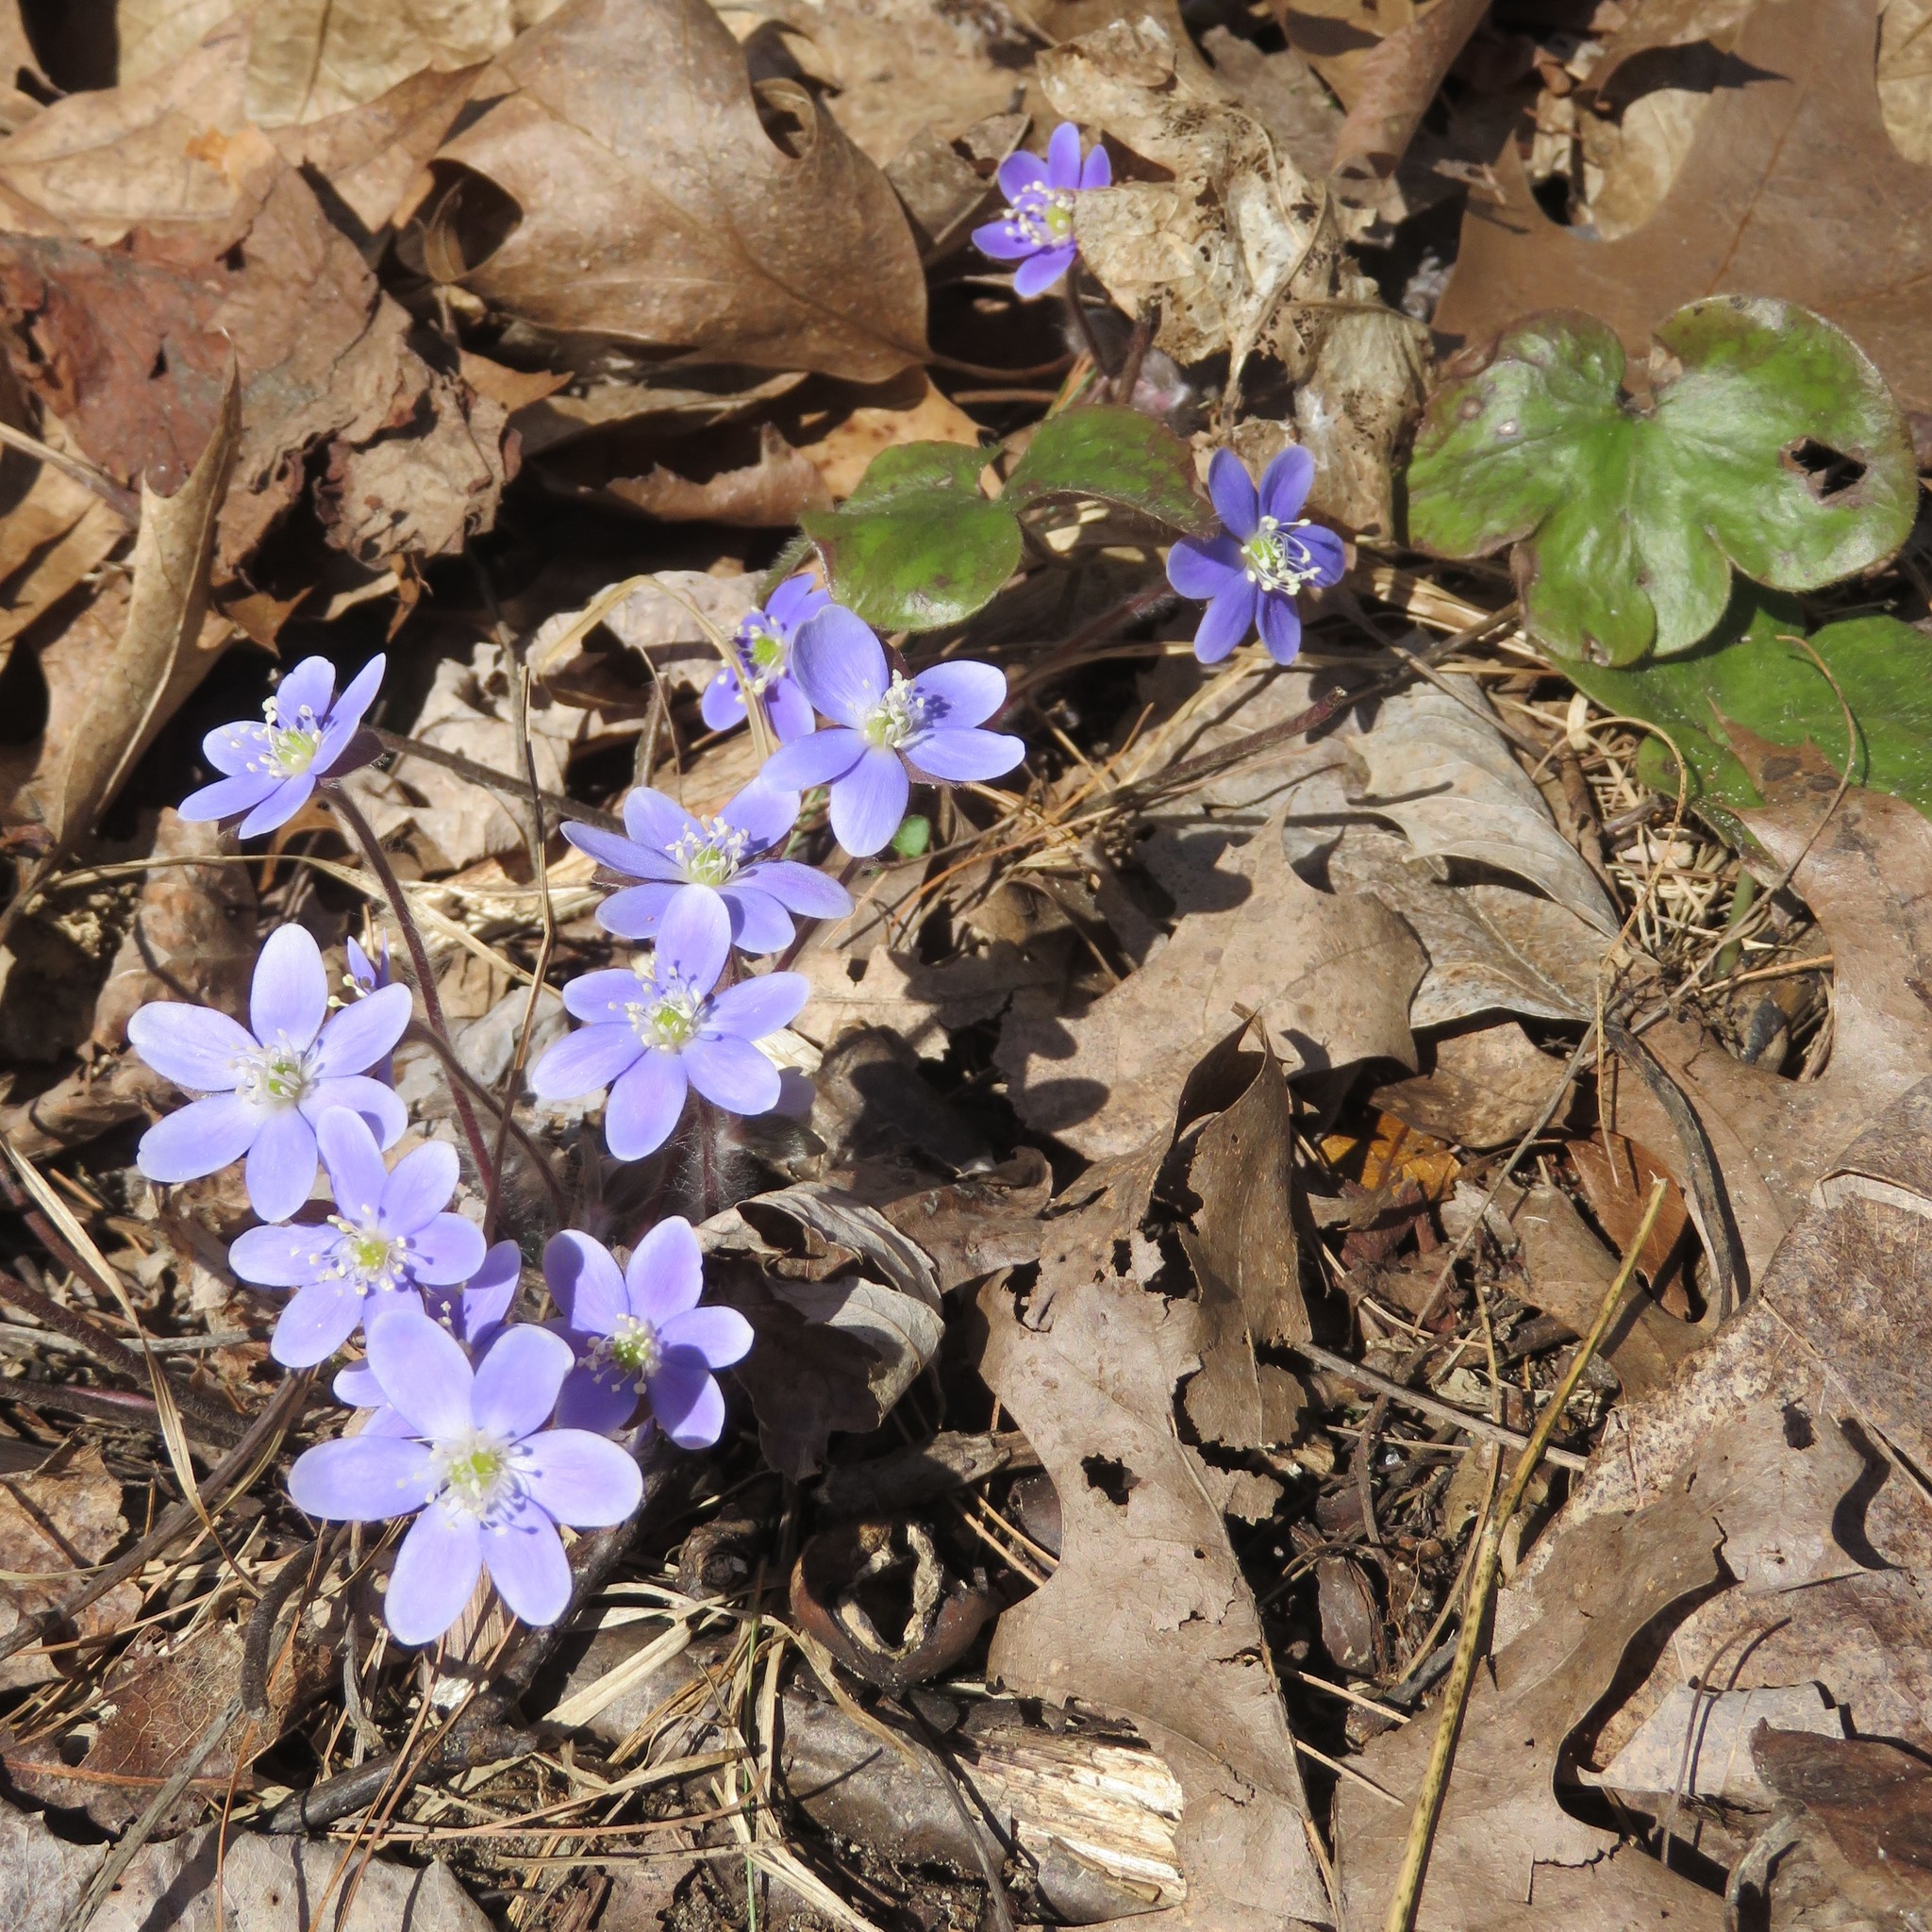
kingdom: Plantae
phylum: Tracheophyta
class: Magnoliopsida
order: Ranunculales
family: Ranunculaceae
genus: Hepatica
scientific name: Hepatica americana
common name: American hepatica
